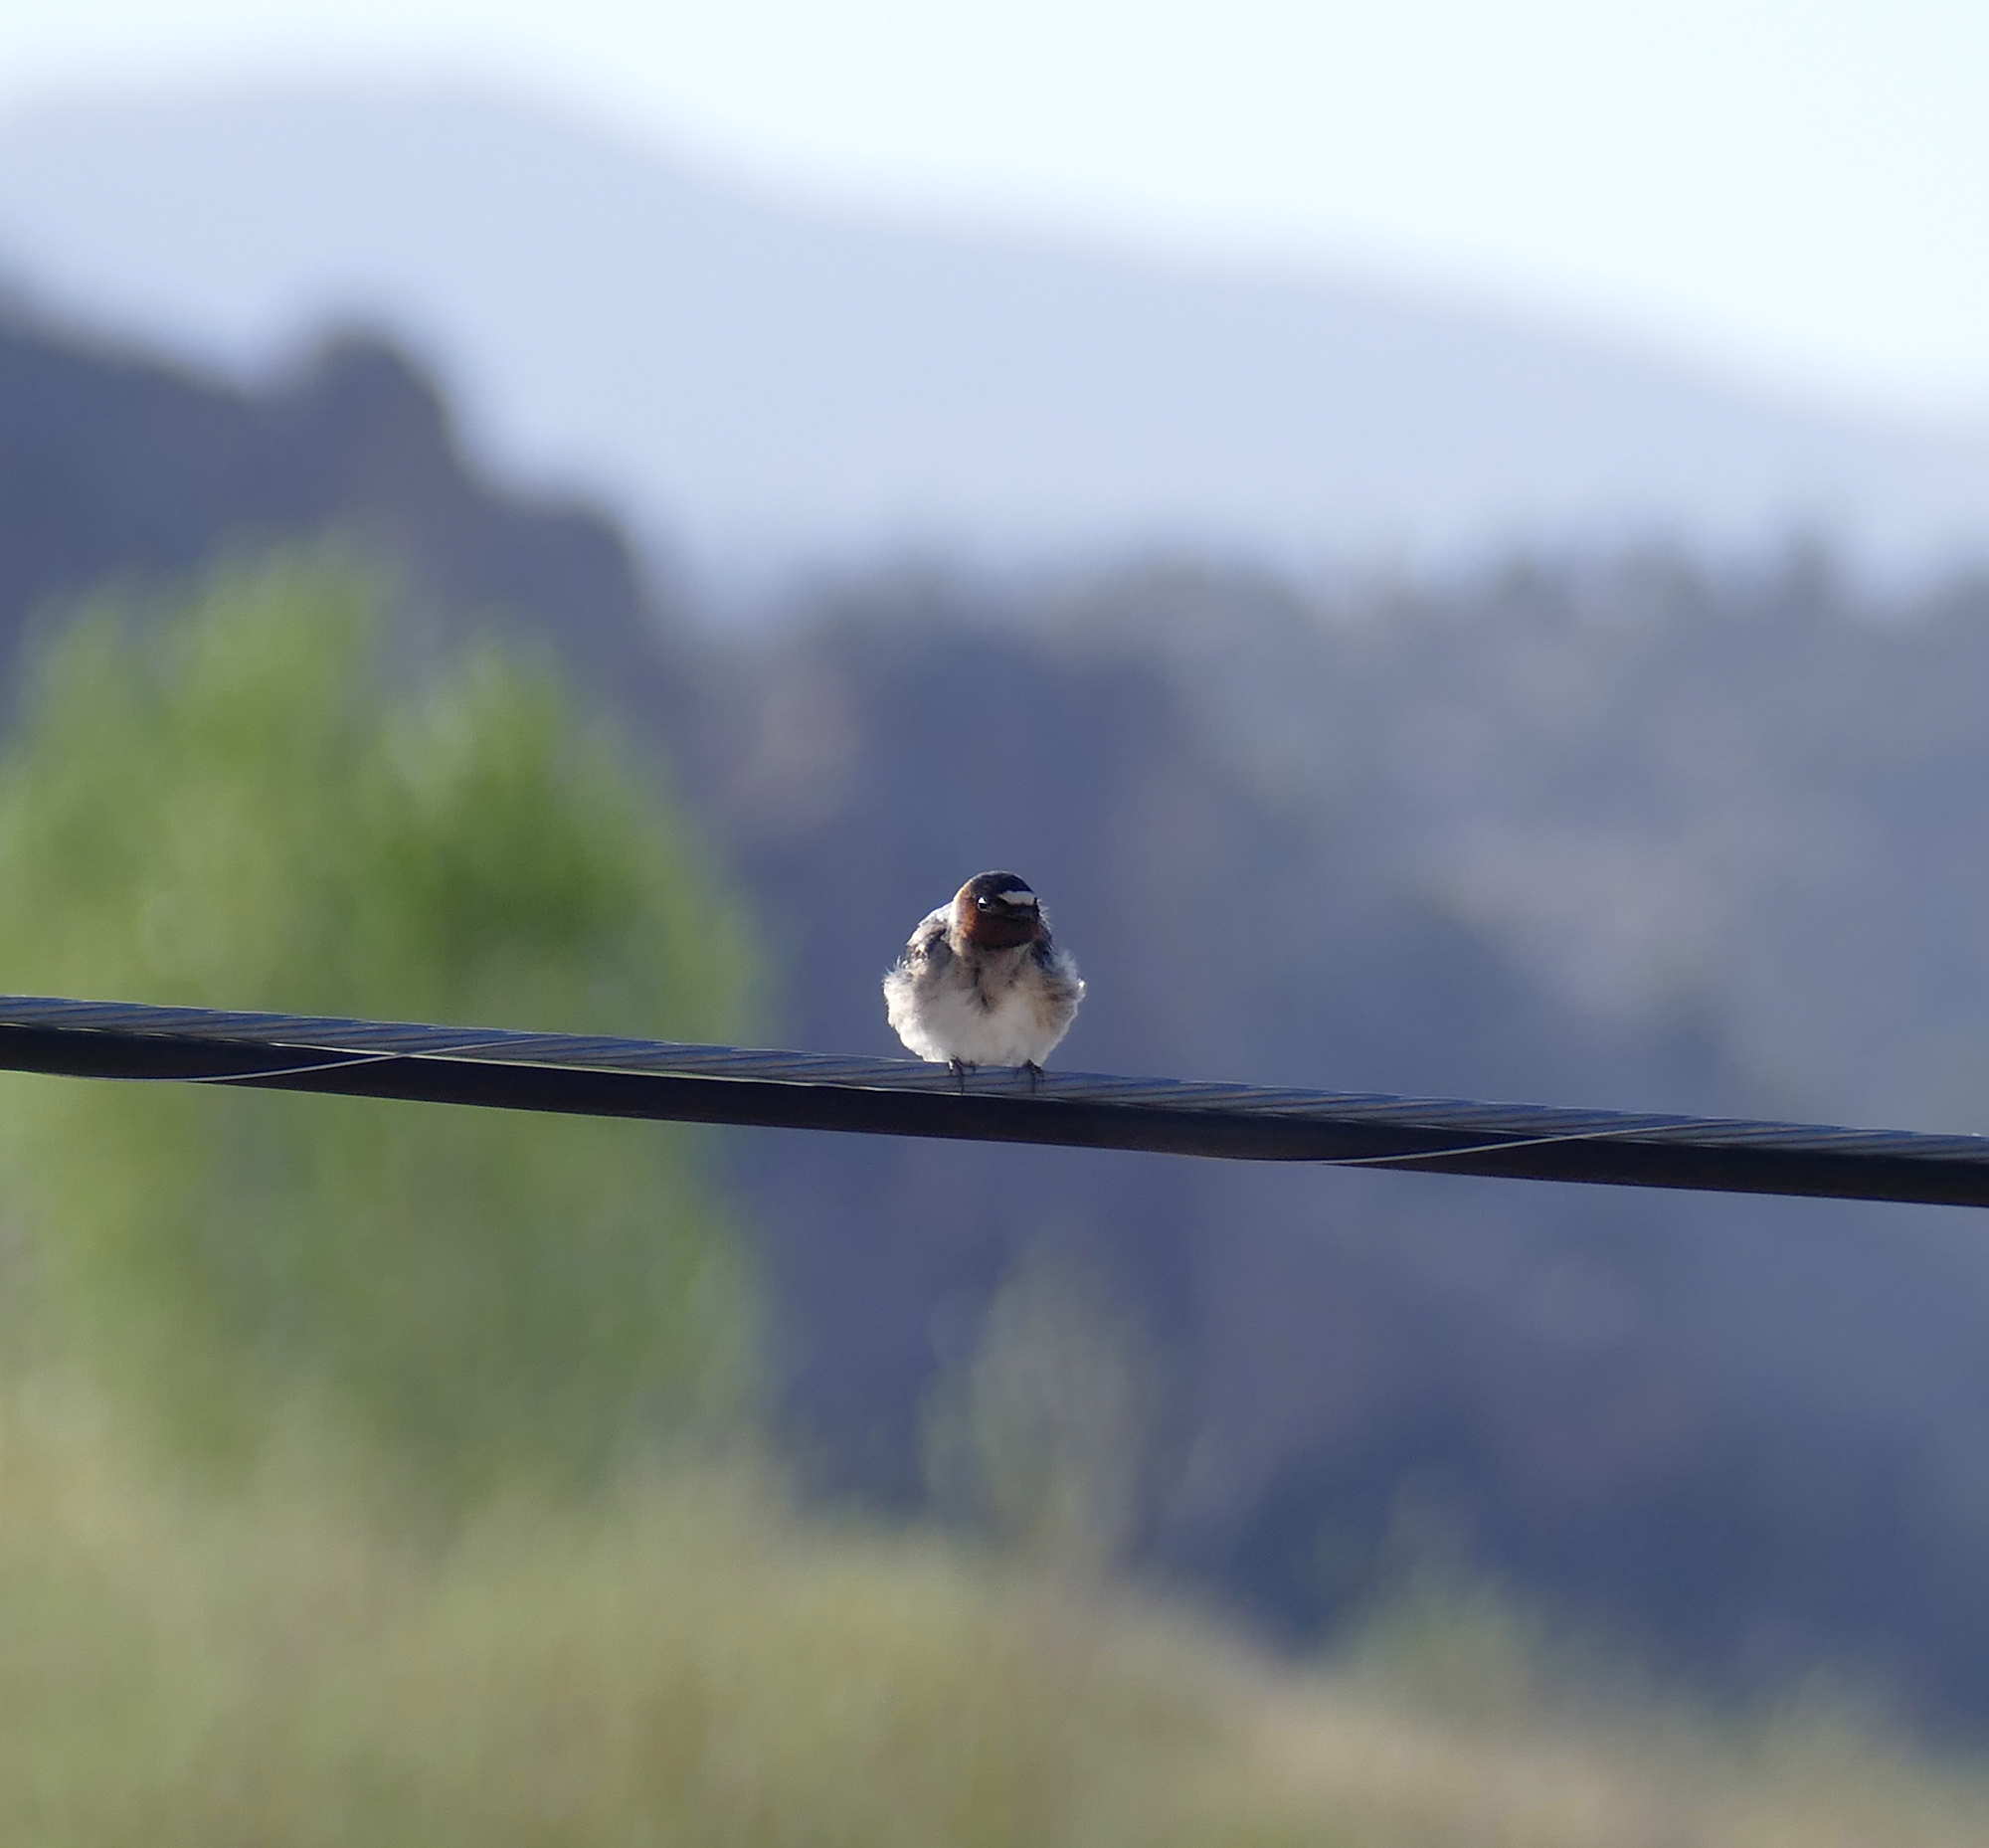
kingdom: Animalia
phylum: Chordata
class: Aves
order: Passeriformes
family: Hirundinidae
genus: Petrochelidon
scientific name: Petrochelidon pyrrhonota
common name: American cliff swallow
